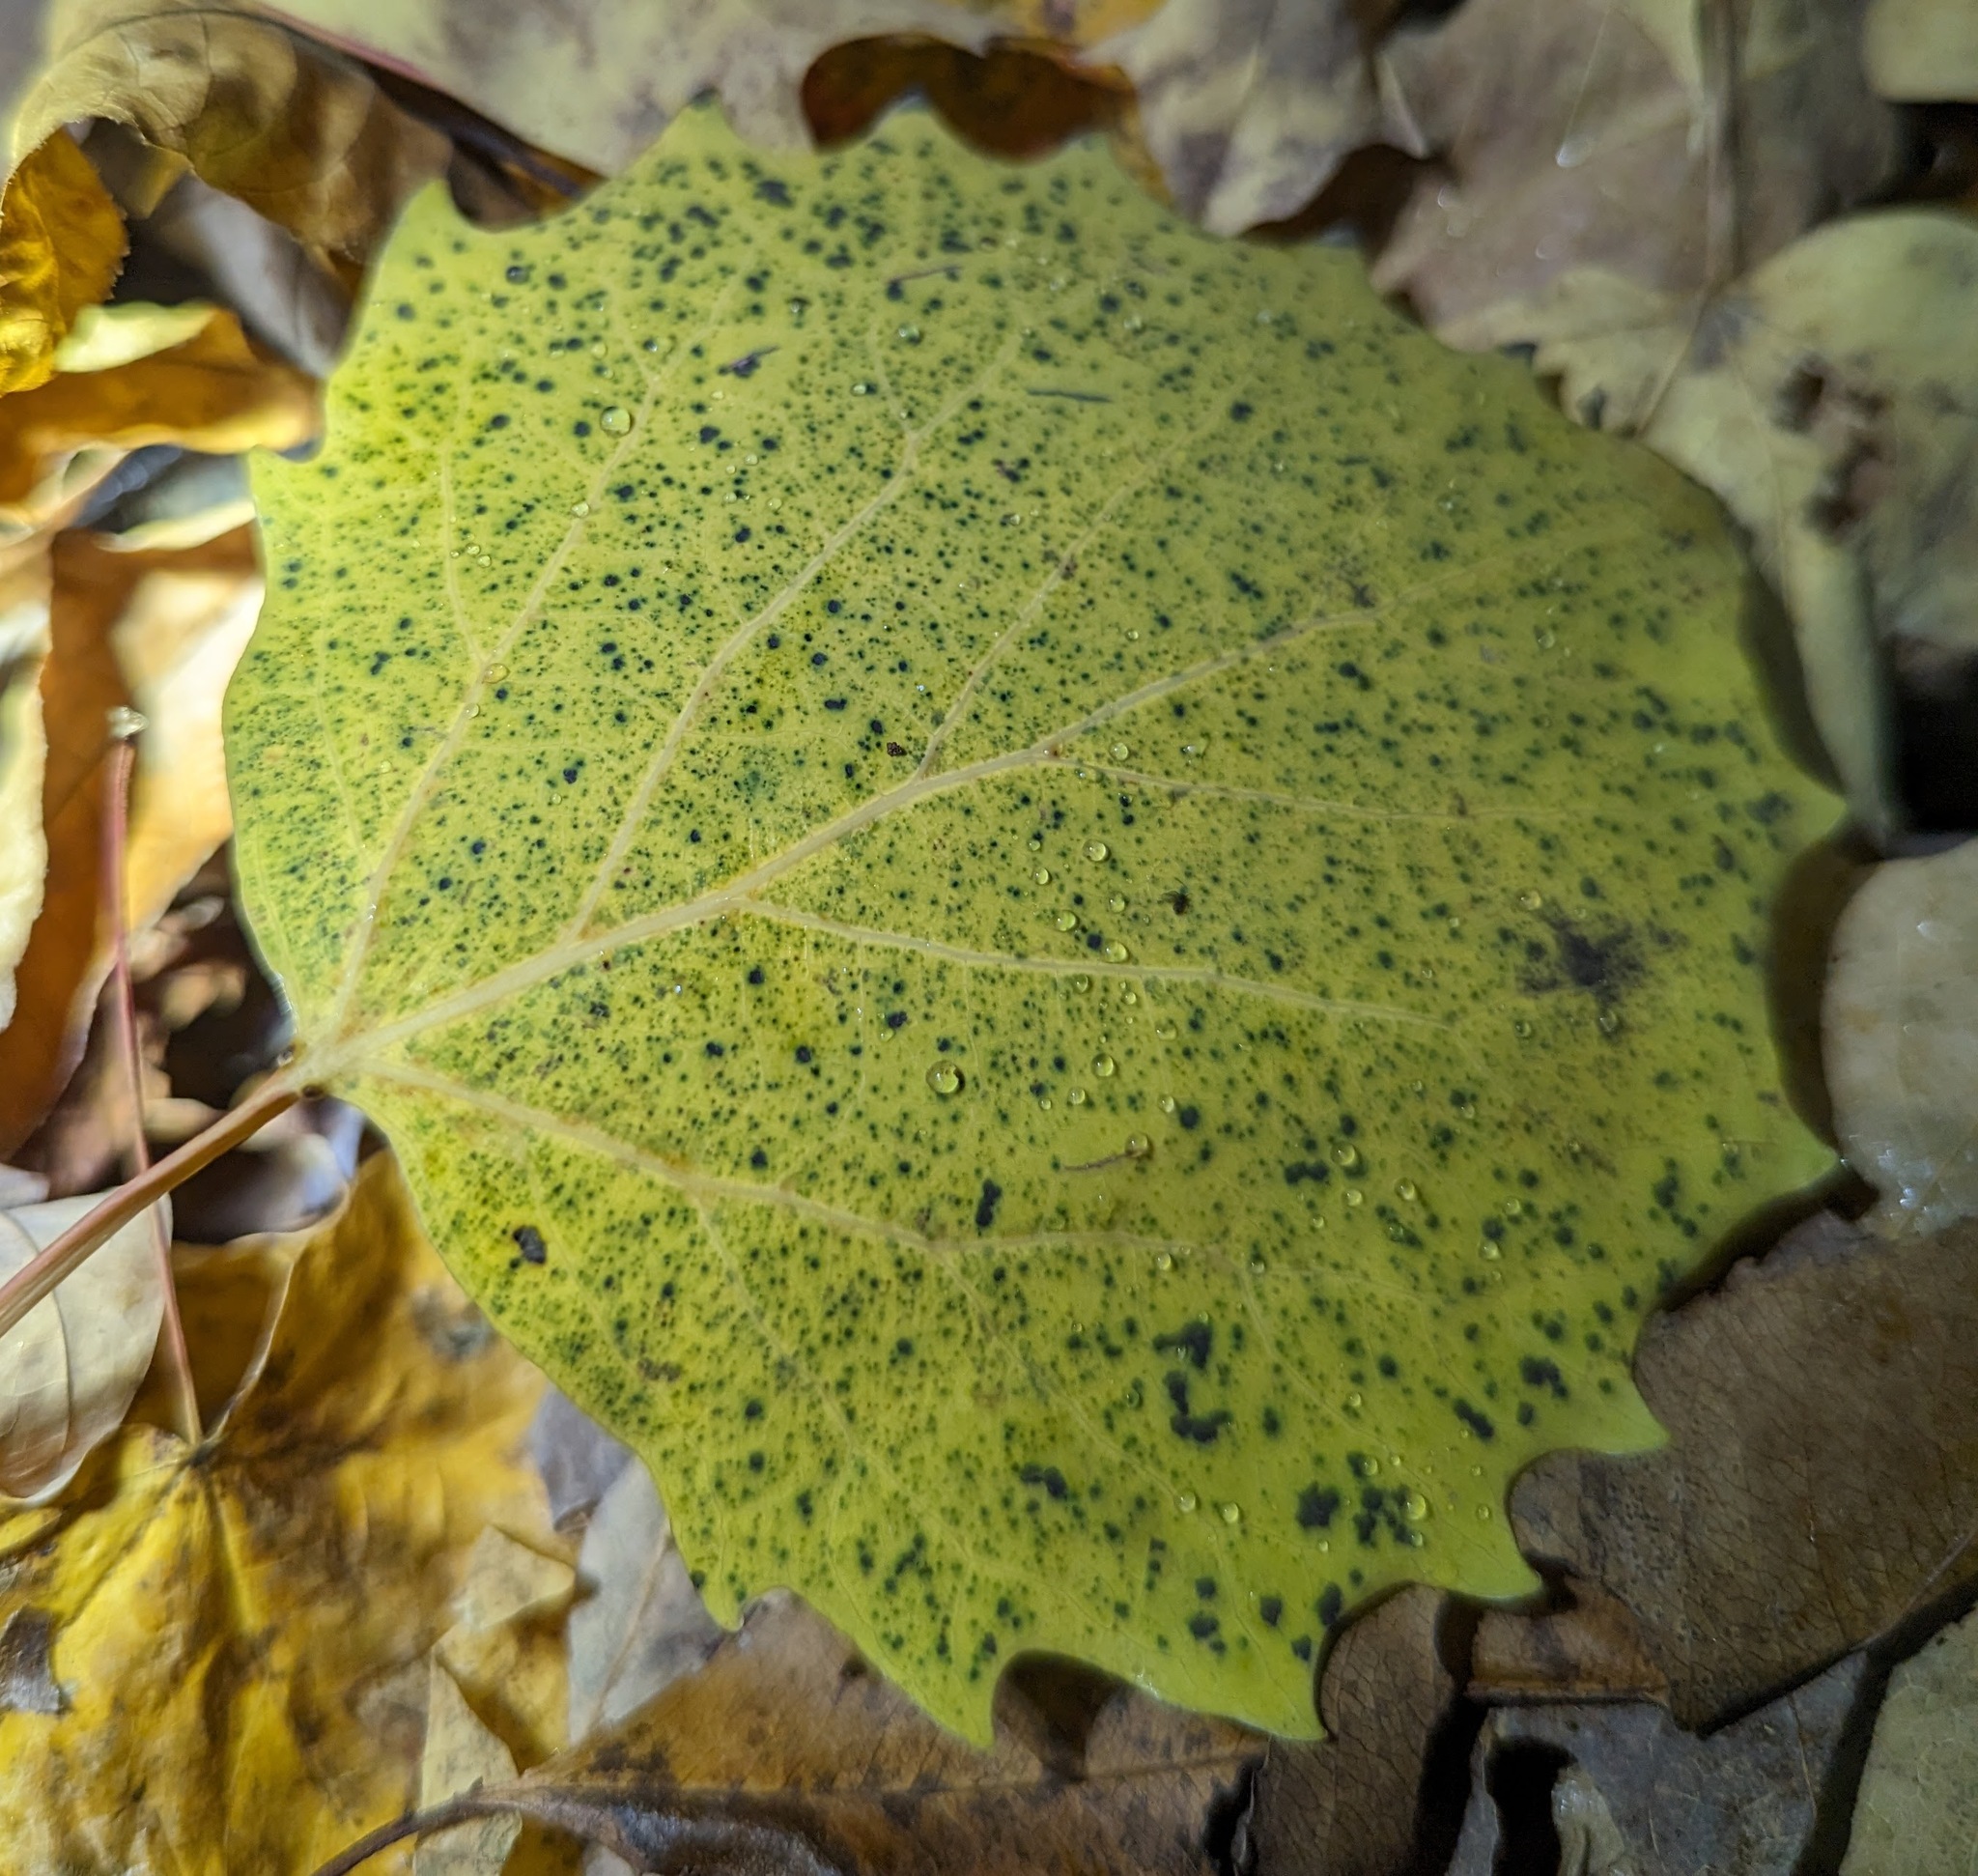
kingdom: Plantae
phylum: Tracheophyta
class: Magnoliopsida
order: Malpighiales
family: Salicaceae
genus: Populus
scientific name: Populus grandidentata
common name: Bigtooth aspen
